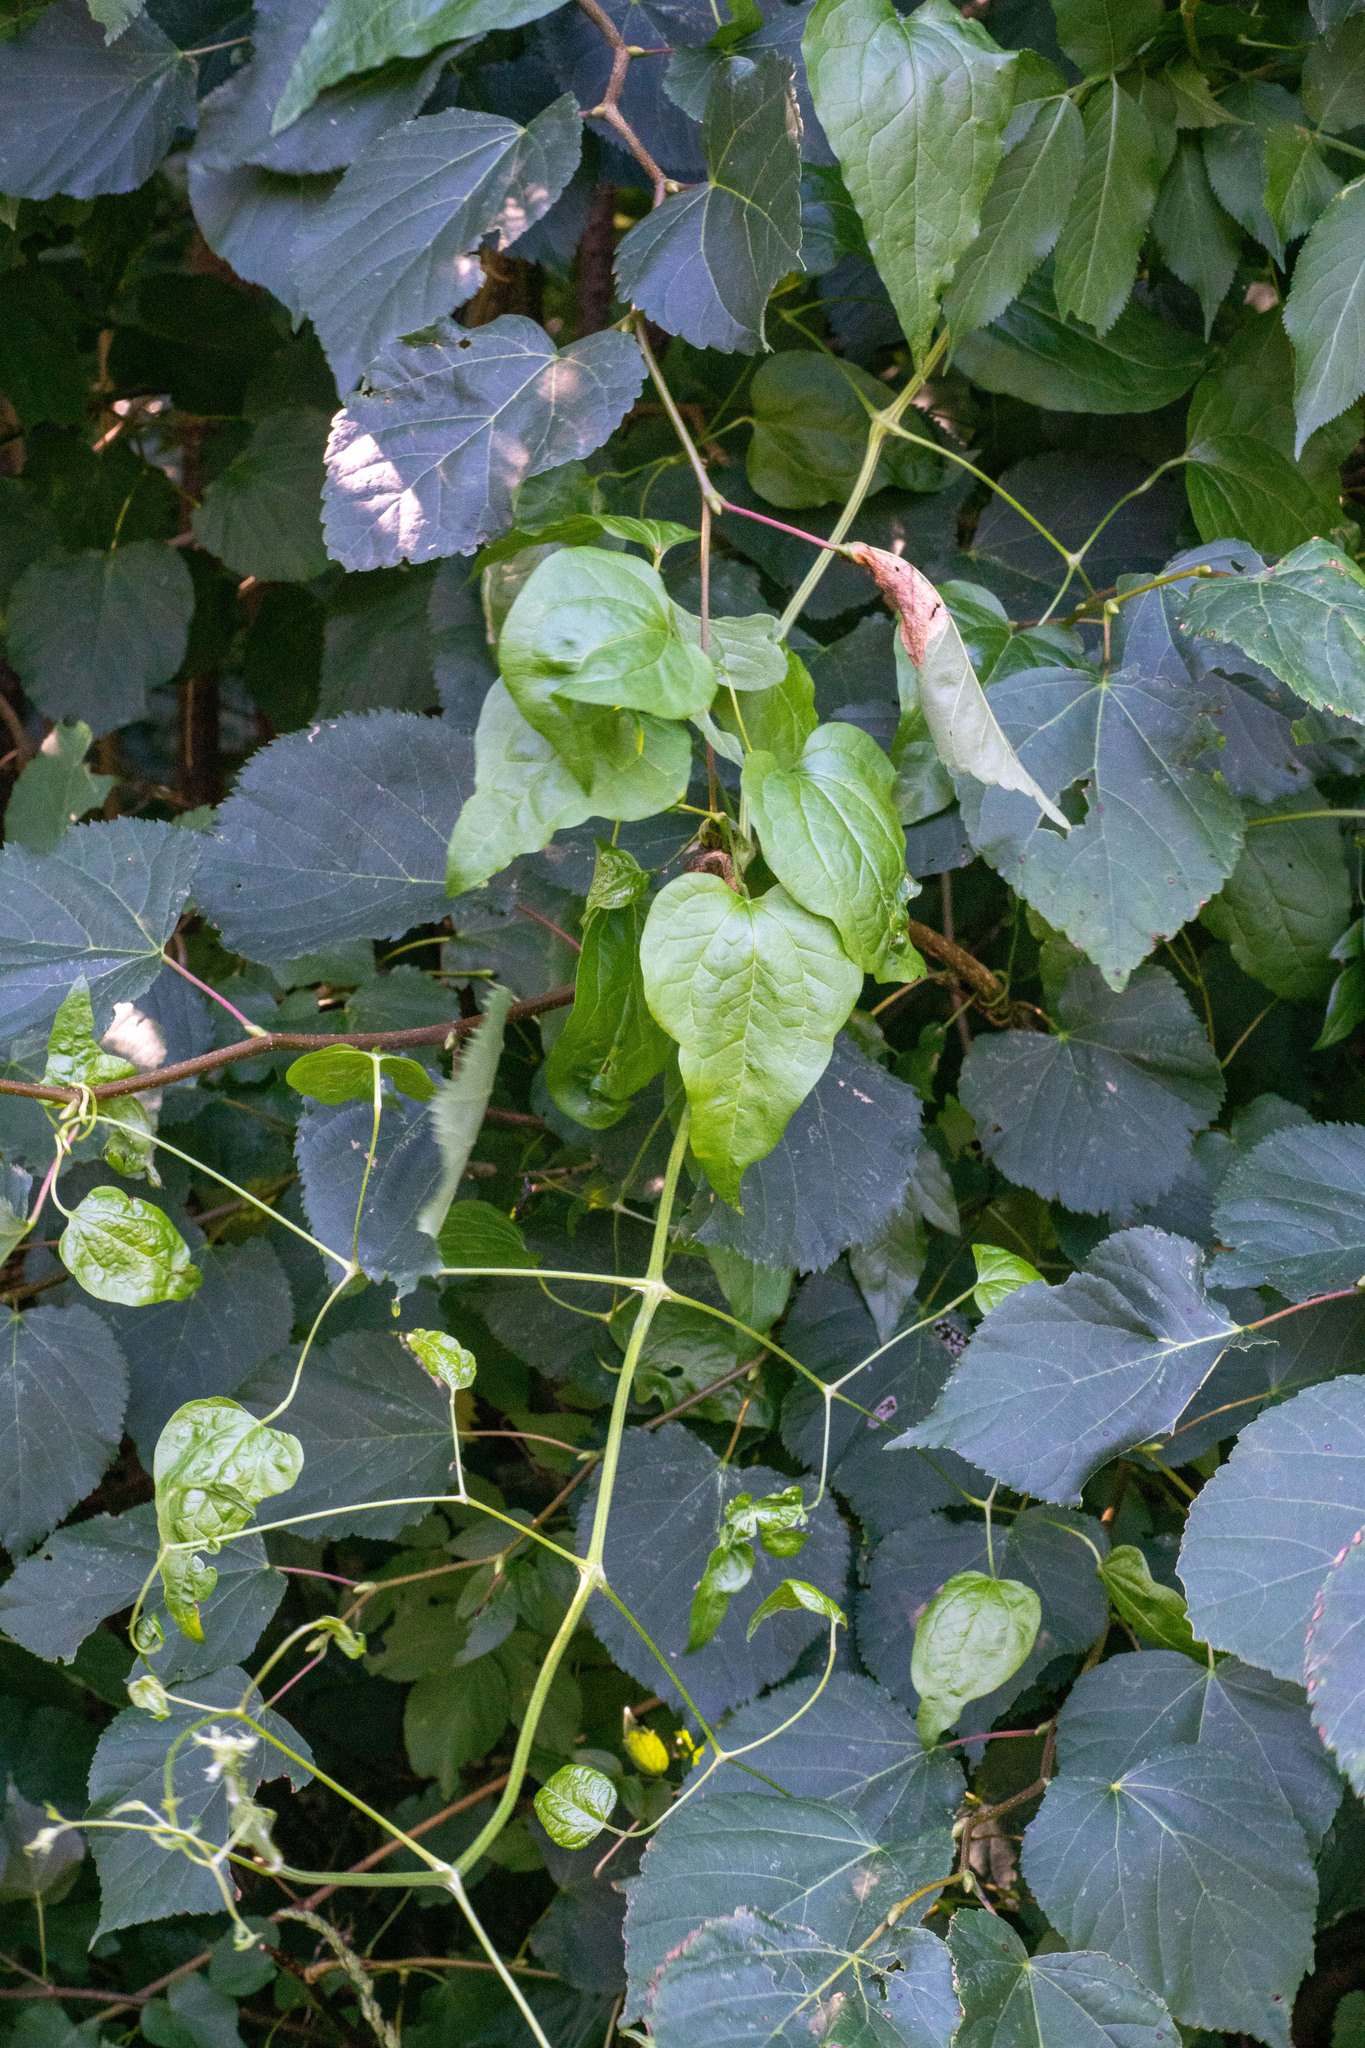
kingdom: Plantae
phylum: Tracheophyta
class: Magnoliopsida
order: Ranunculales
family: Ranunculaceae
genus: Clematis
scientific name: Clematis vitalba
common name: Evergreen clematis
